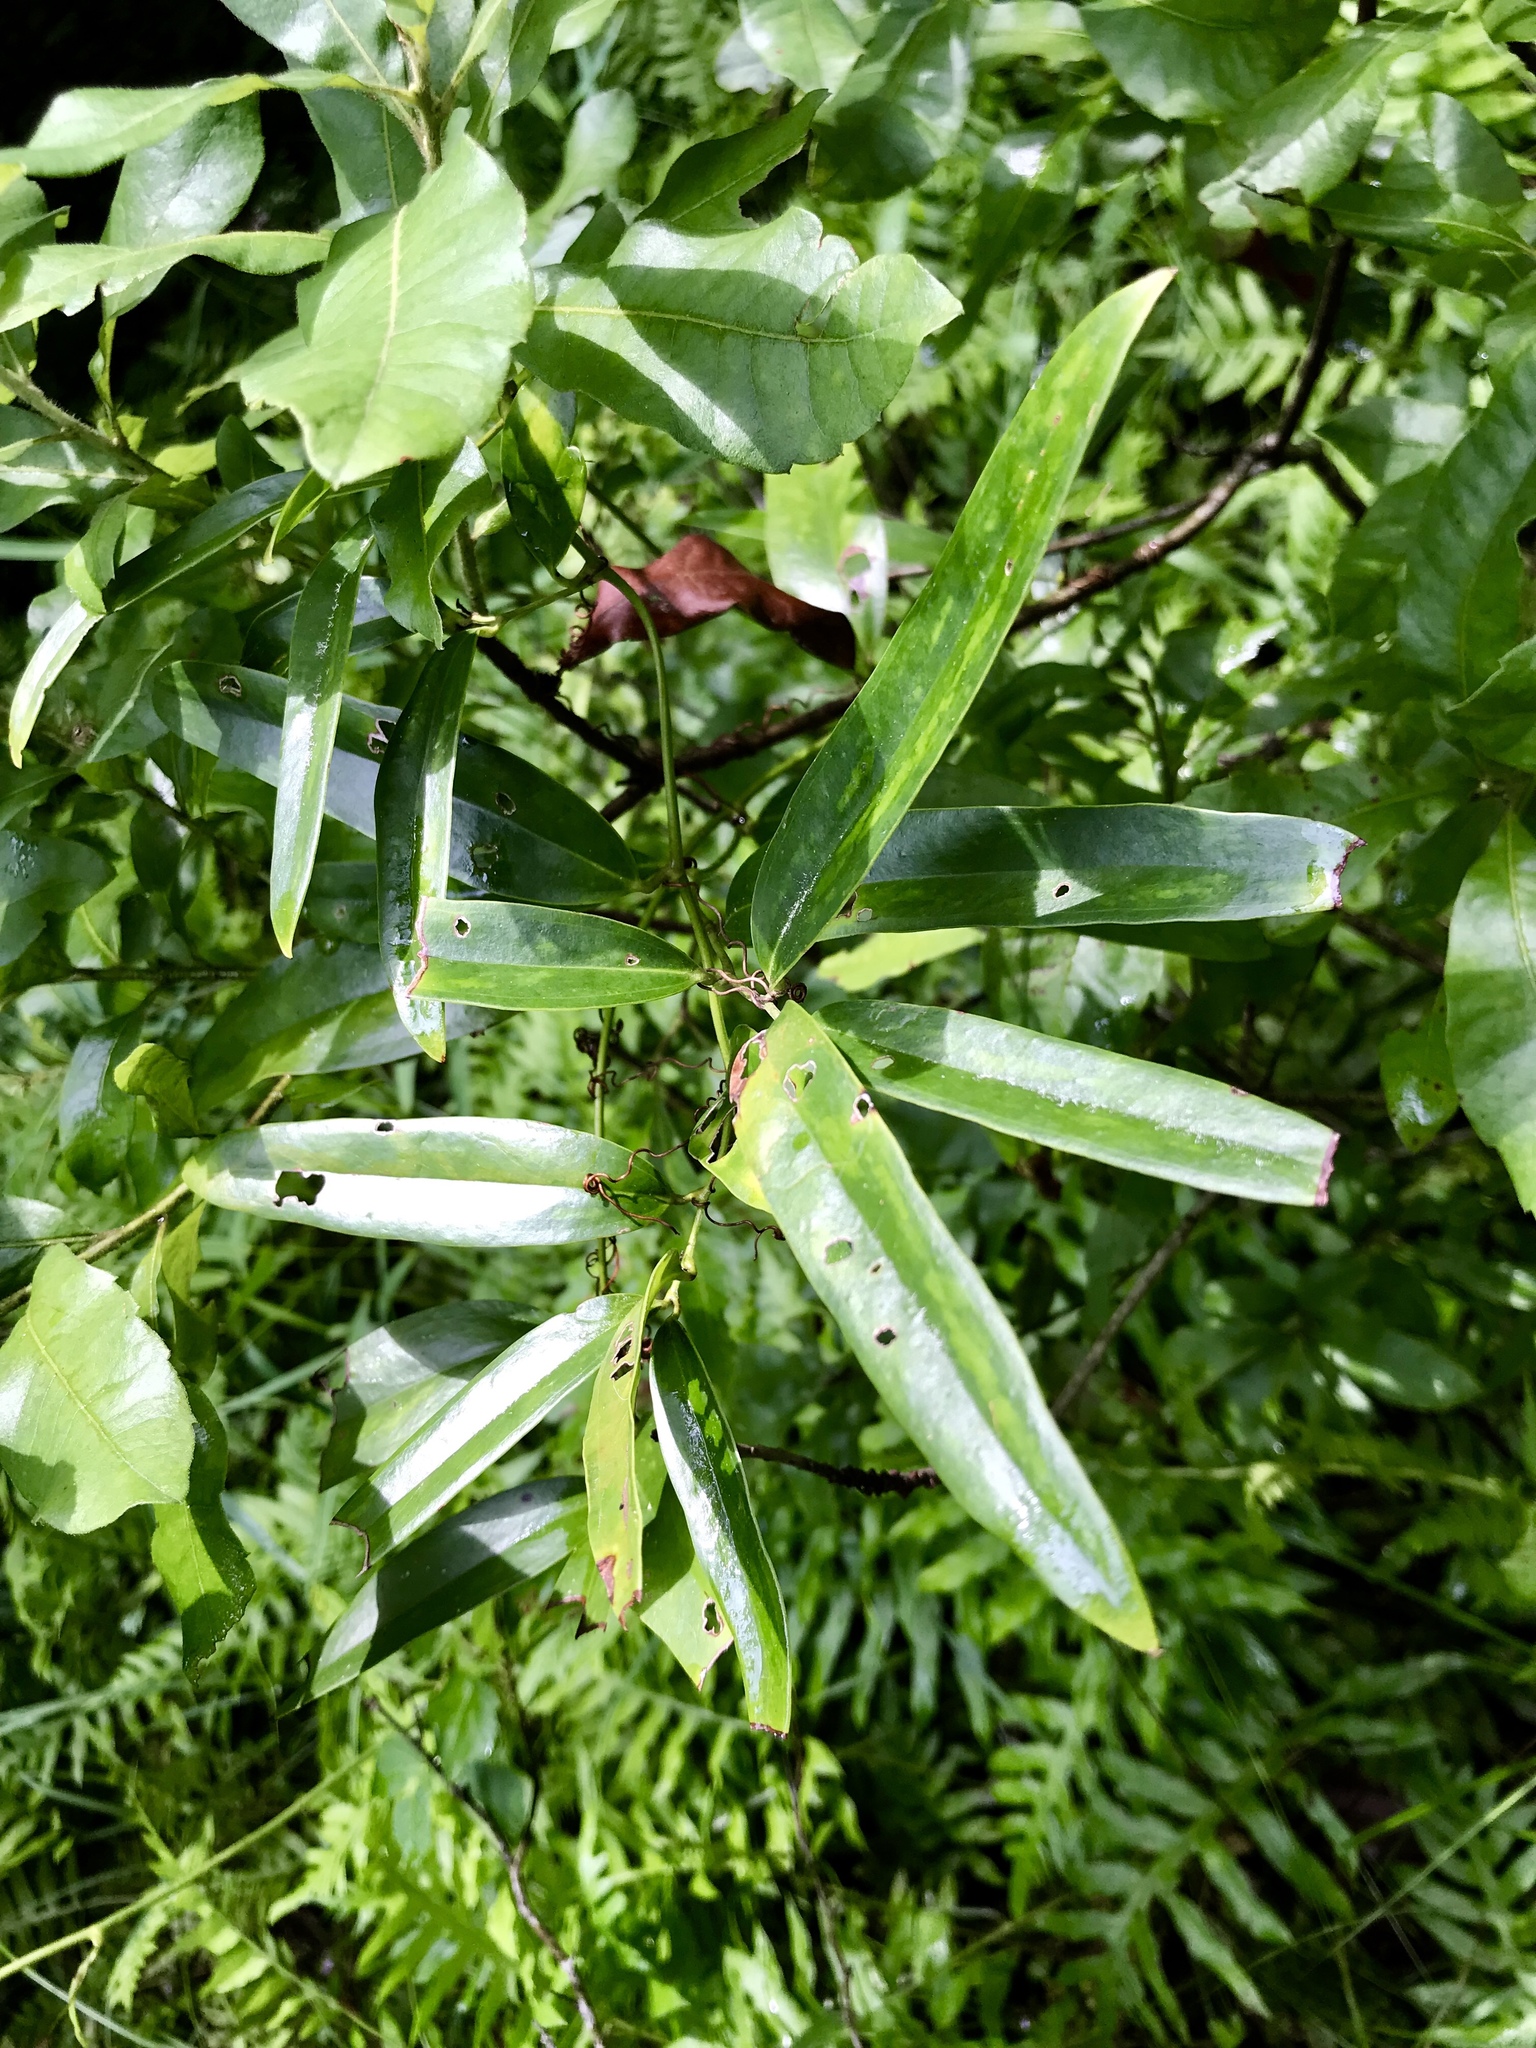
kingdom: Plantae
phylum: Tracheophyta
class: Liliopsida
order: Liliales
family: Smilacaceae
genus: Smilax
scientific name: Smilax laurifolia
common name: Bamboovine
